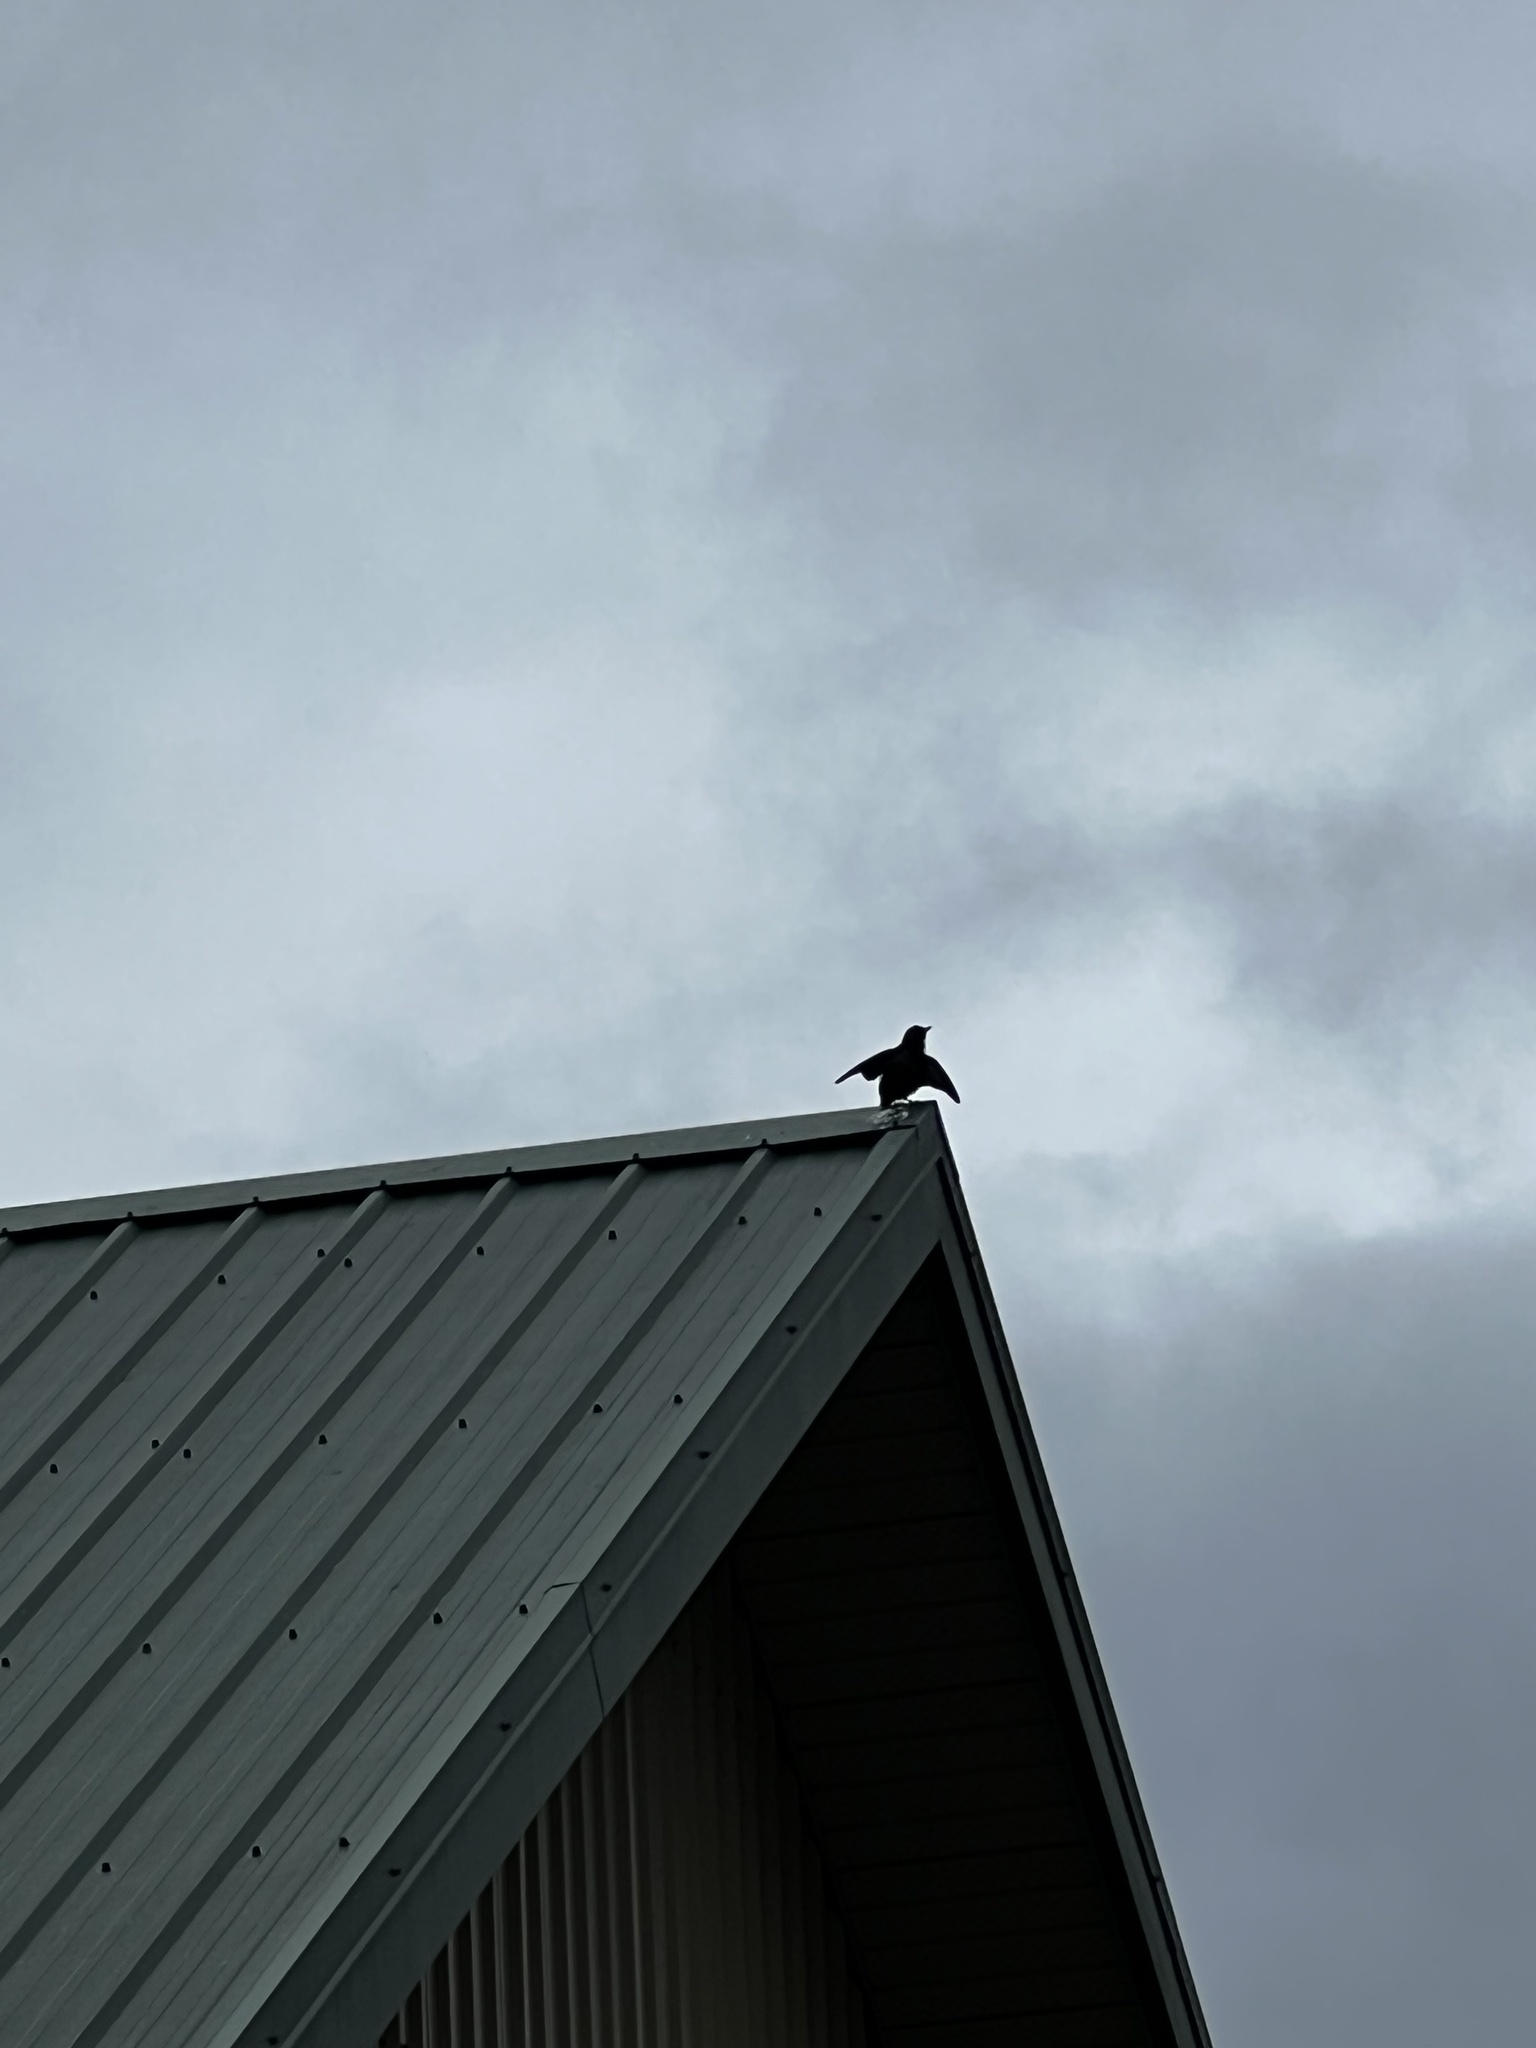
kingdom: Animalia
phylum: Chordata
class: Aves
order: Passeriformes
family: Sturnidae
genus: Sturnus
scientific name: Sturnus vulgaris
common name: Common starling
